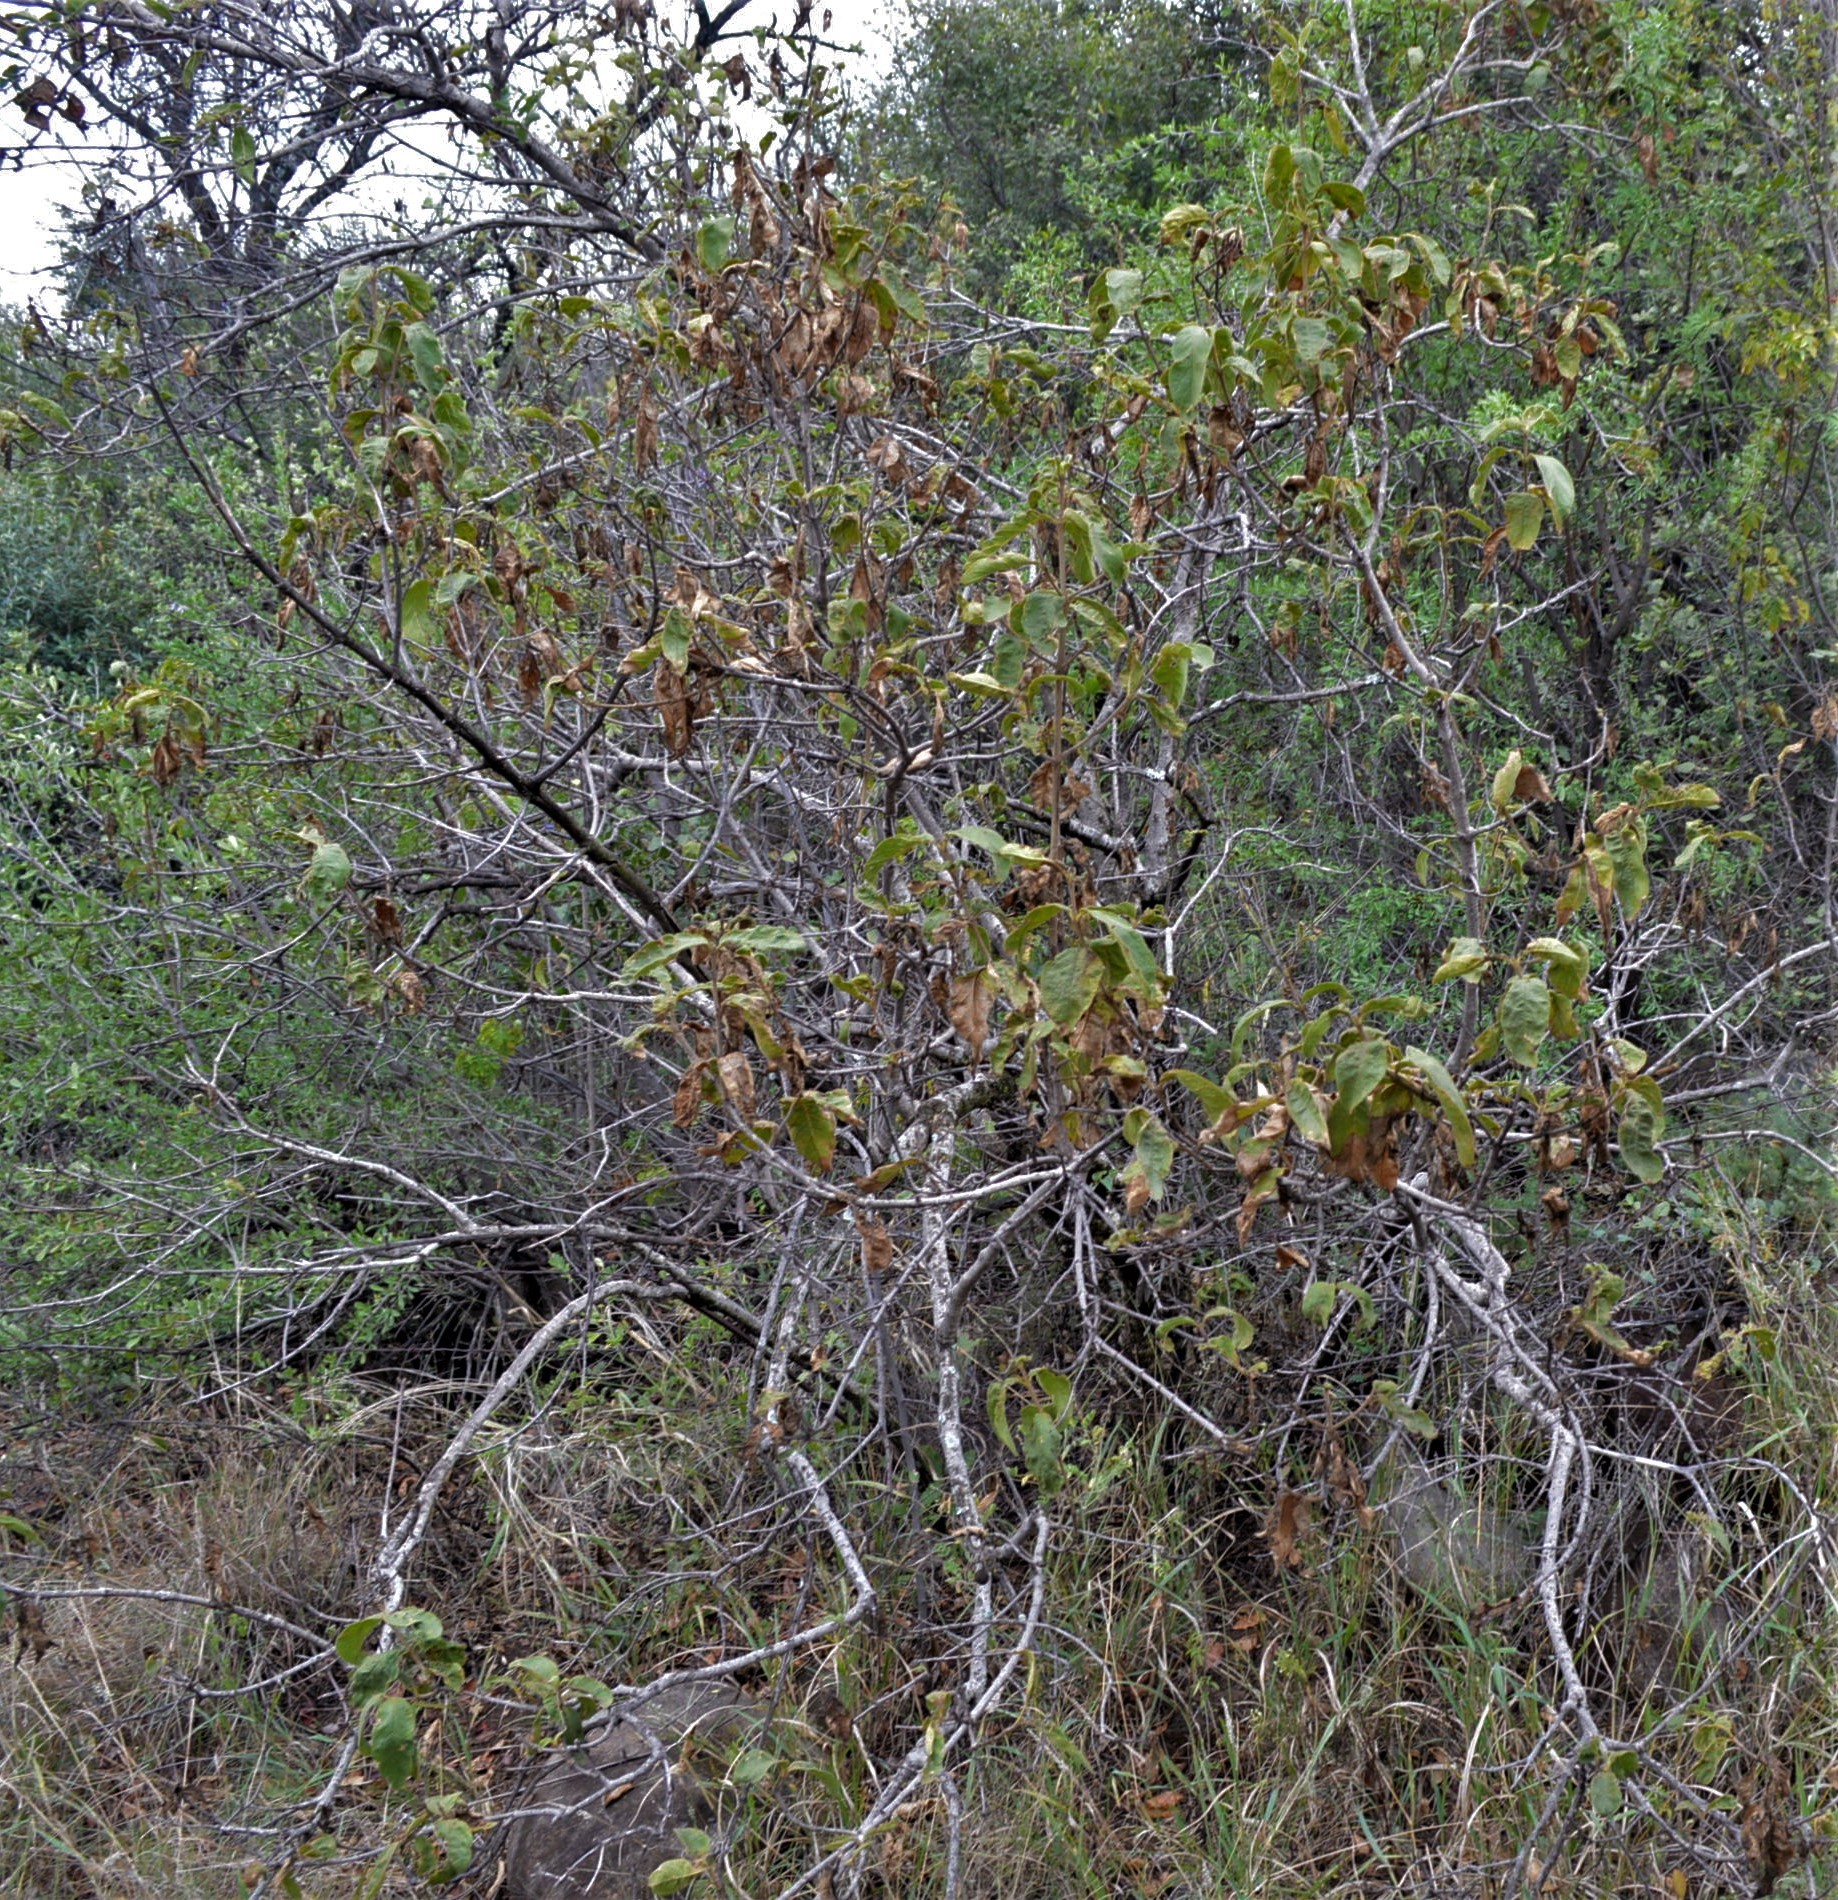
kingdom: Plantae
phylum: Tracheophyta
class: Magnoliopsida
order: Gentianales
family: Rubiaceae
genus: Vangueria
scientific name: Vangueria infausta
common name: Medlar
